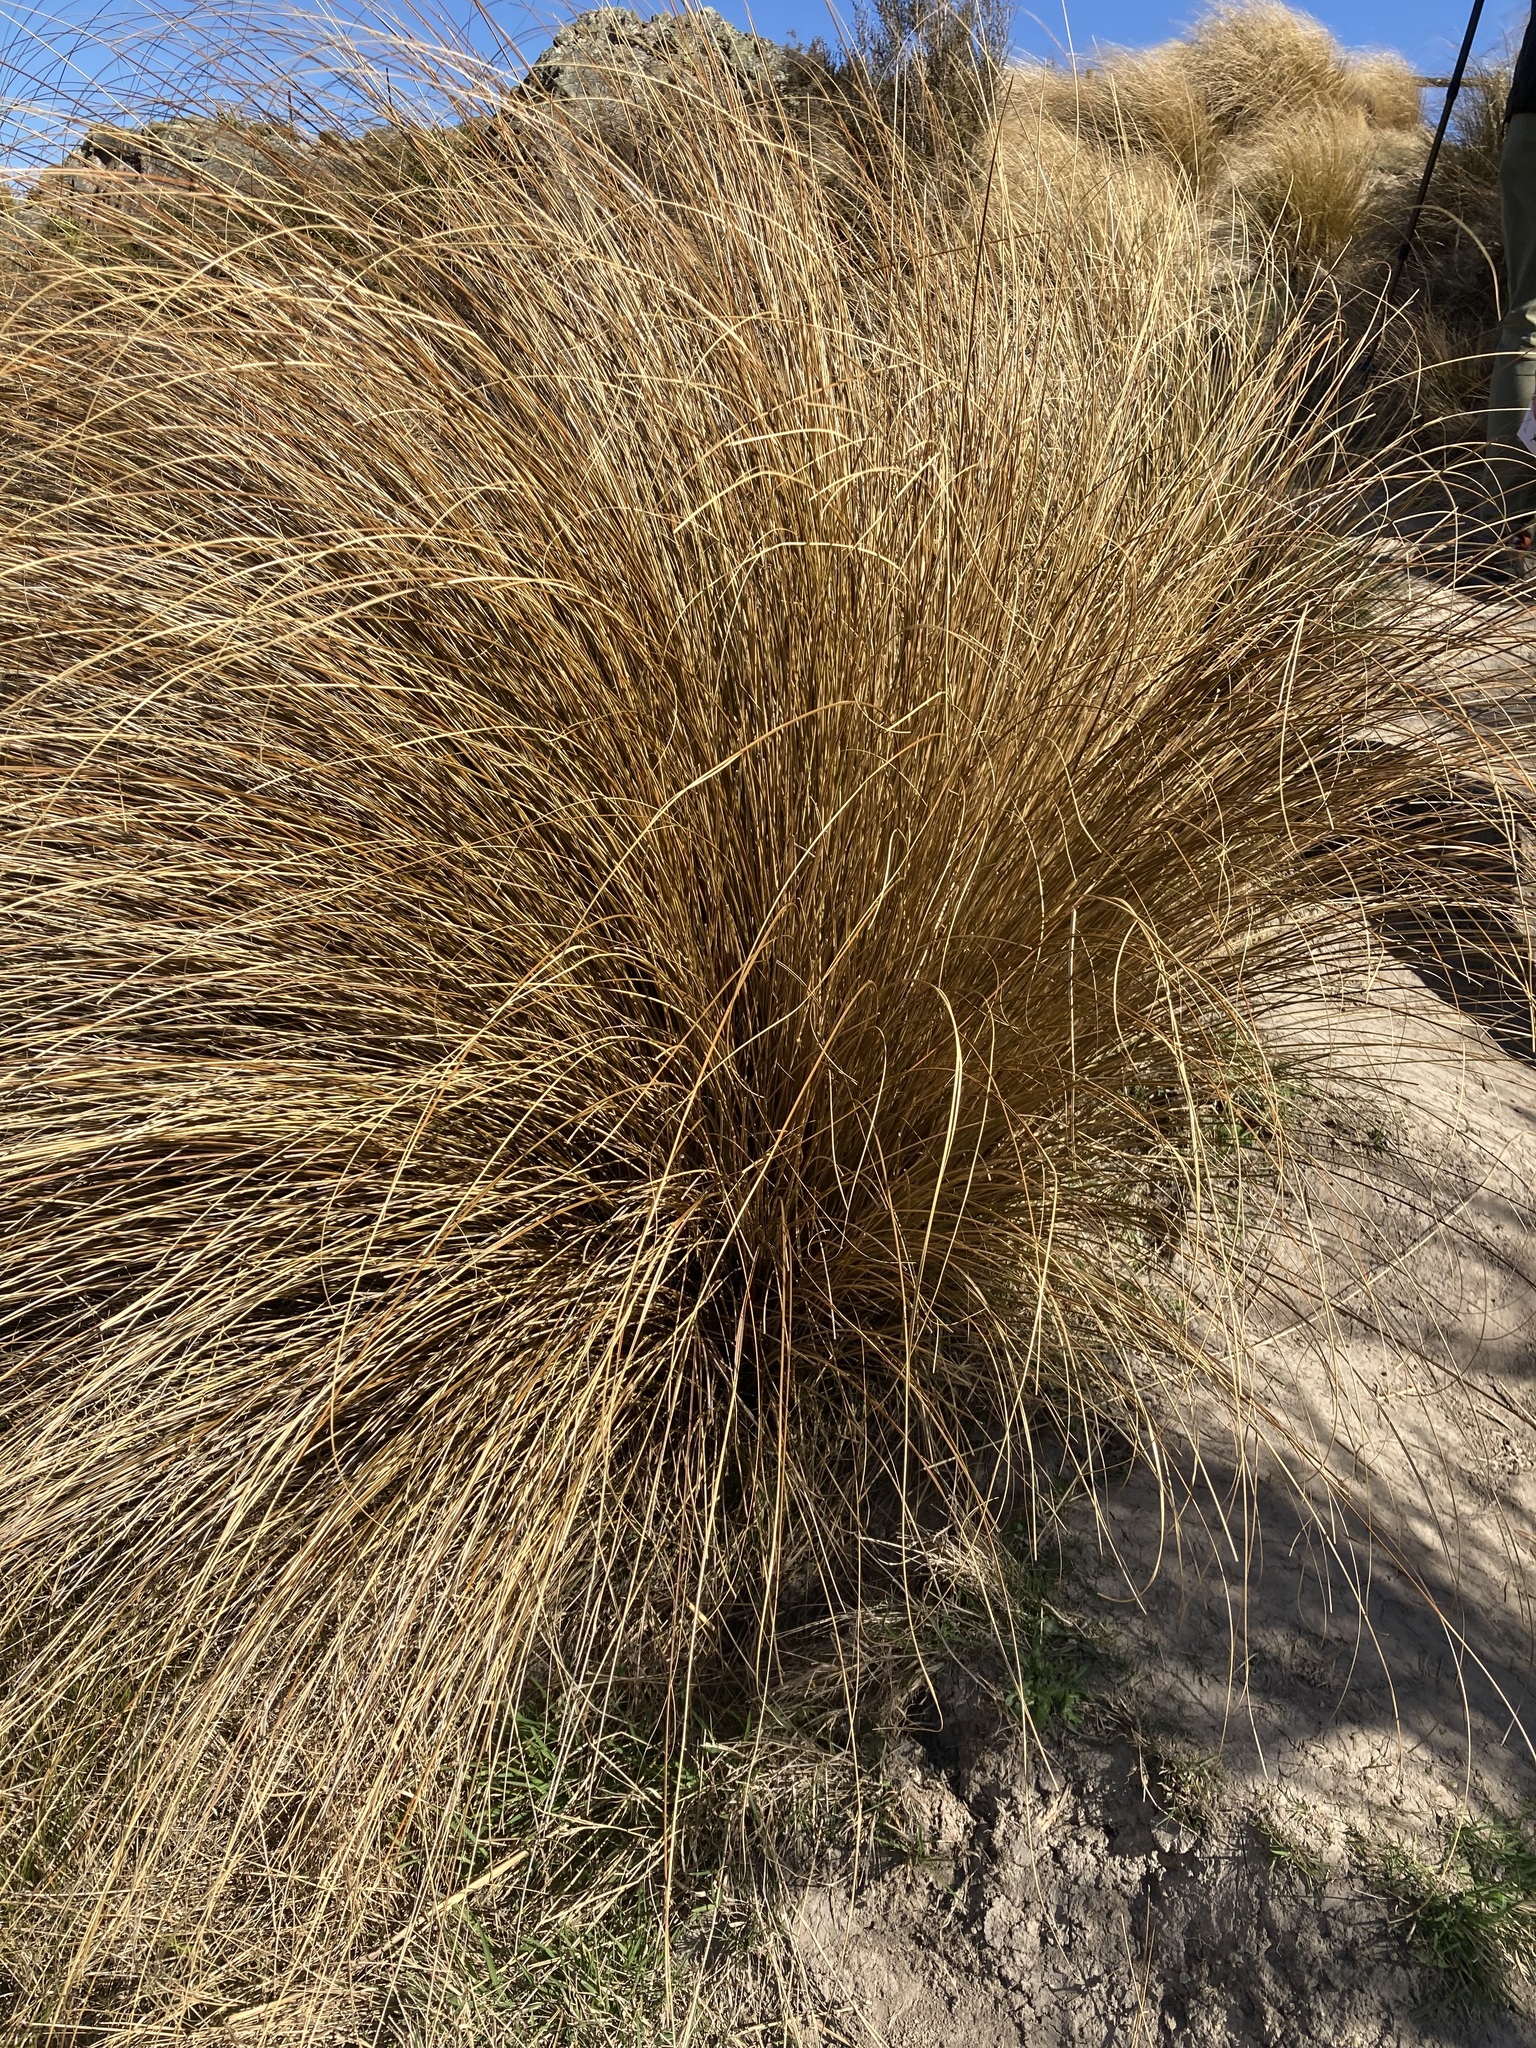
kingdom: Plantae
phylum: Tracheophyta
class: Liliopsida
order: Poales
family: Poaceae
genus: Chionochloa
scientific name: Chionochloa rubra
